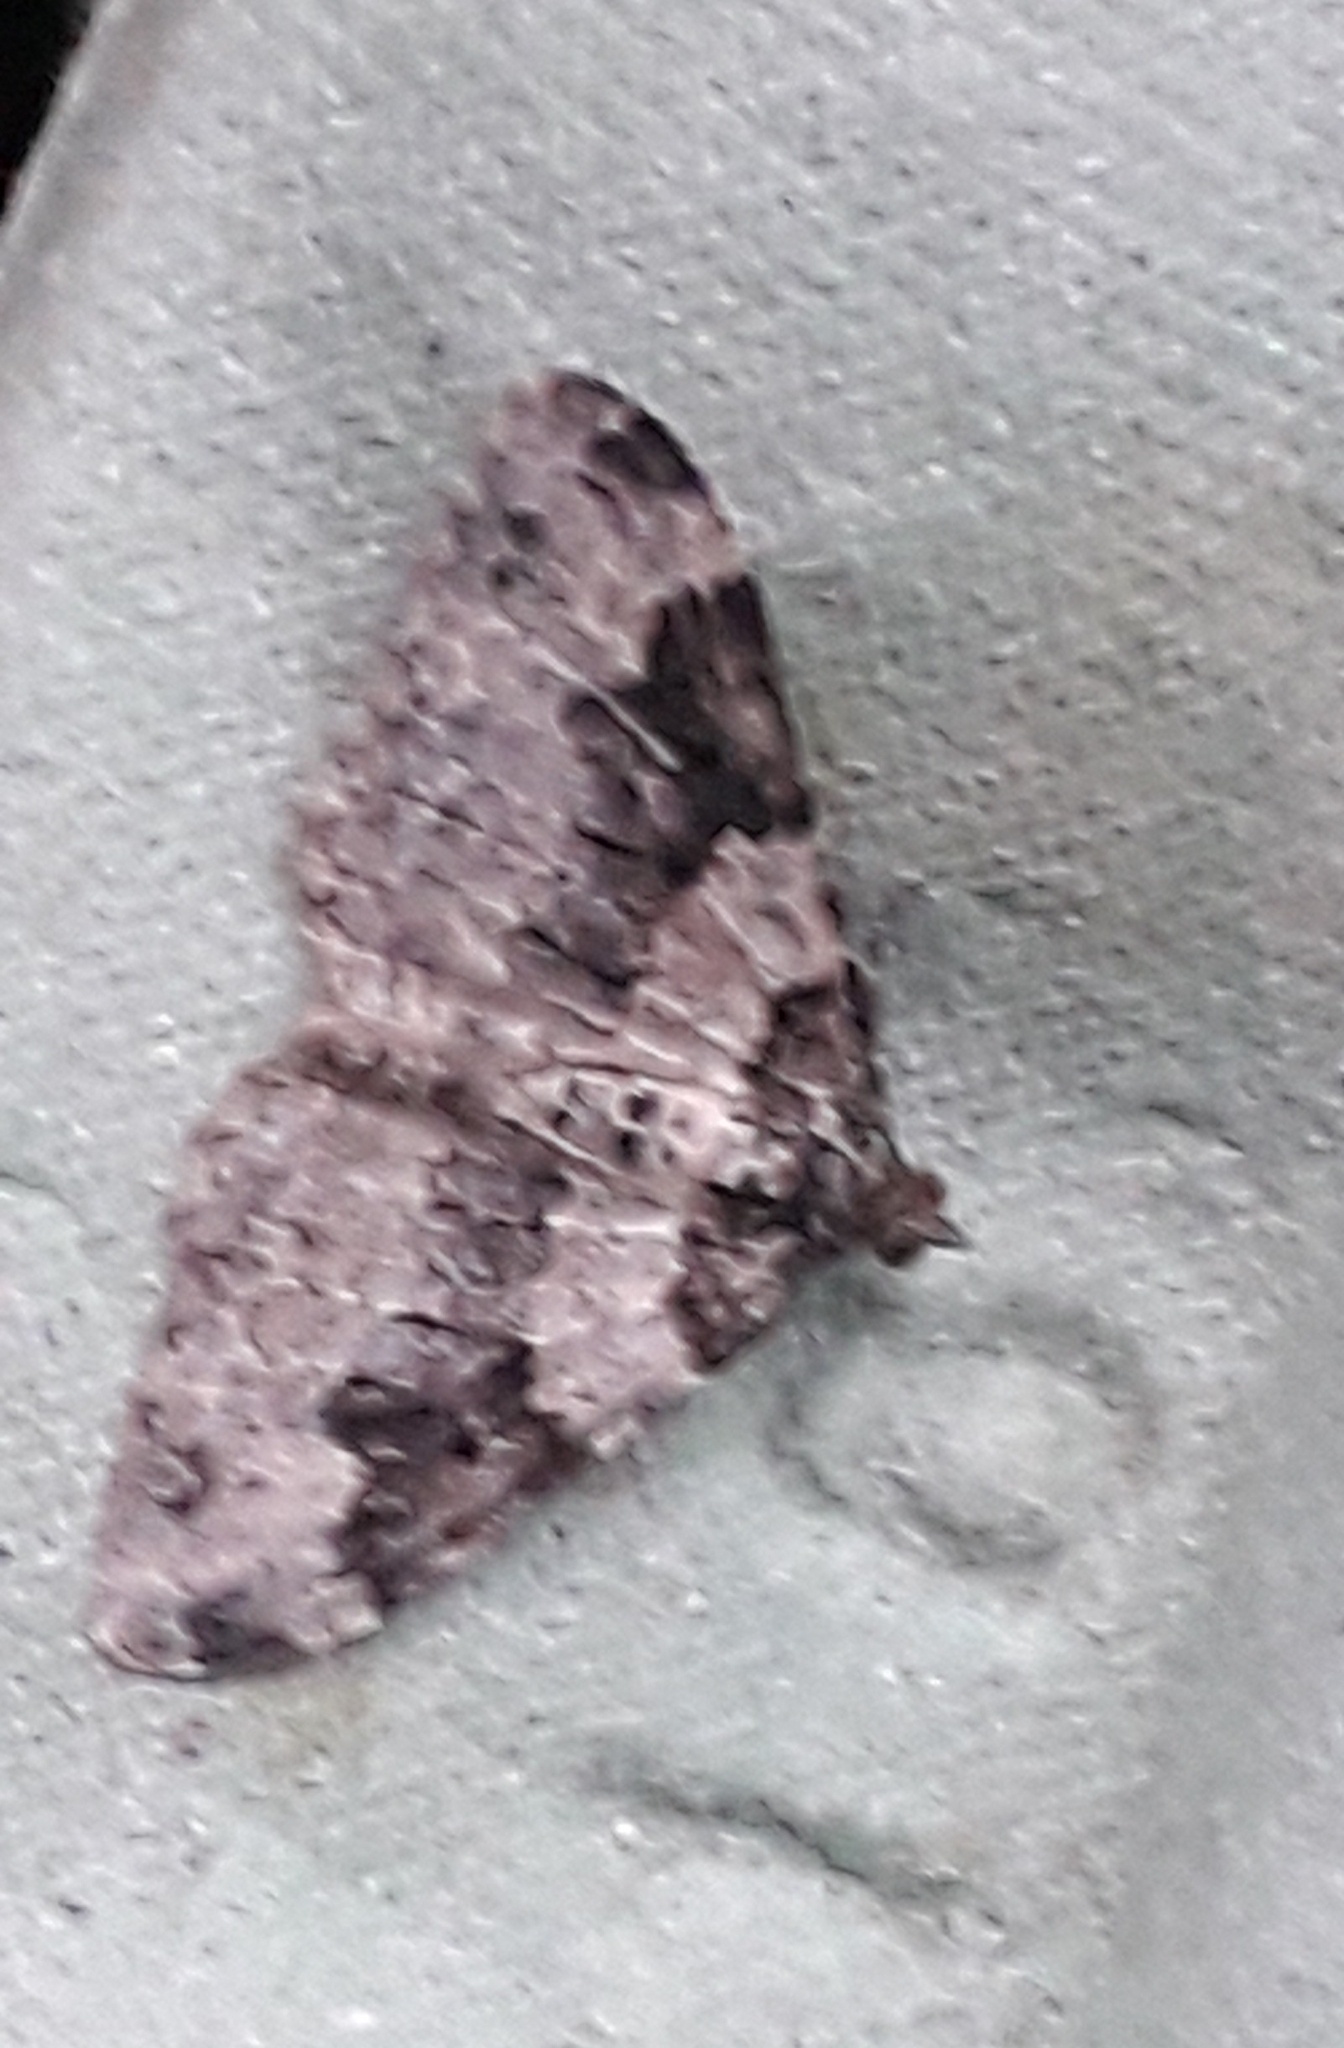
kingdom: Animalia
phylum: Arthropoda
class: Insecta
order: Lepidoptera
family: Geometridae
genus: Xanthorhoe
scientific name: Xanthorhoe fluctuata
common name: Garden carpet
